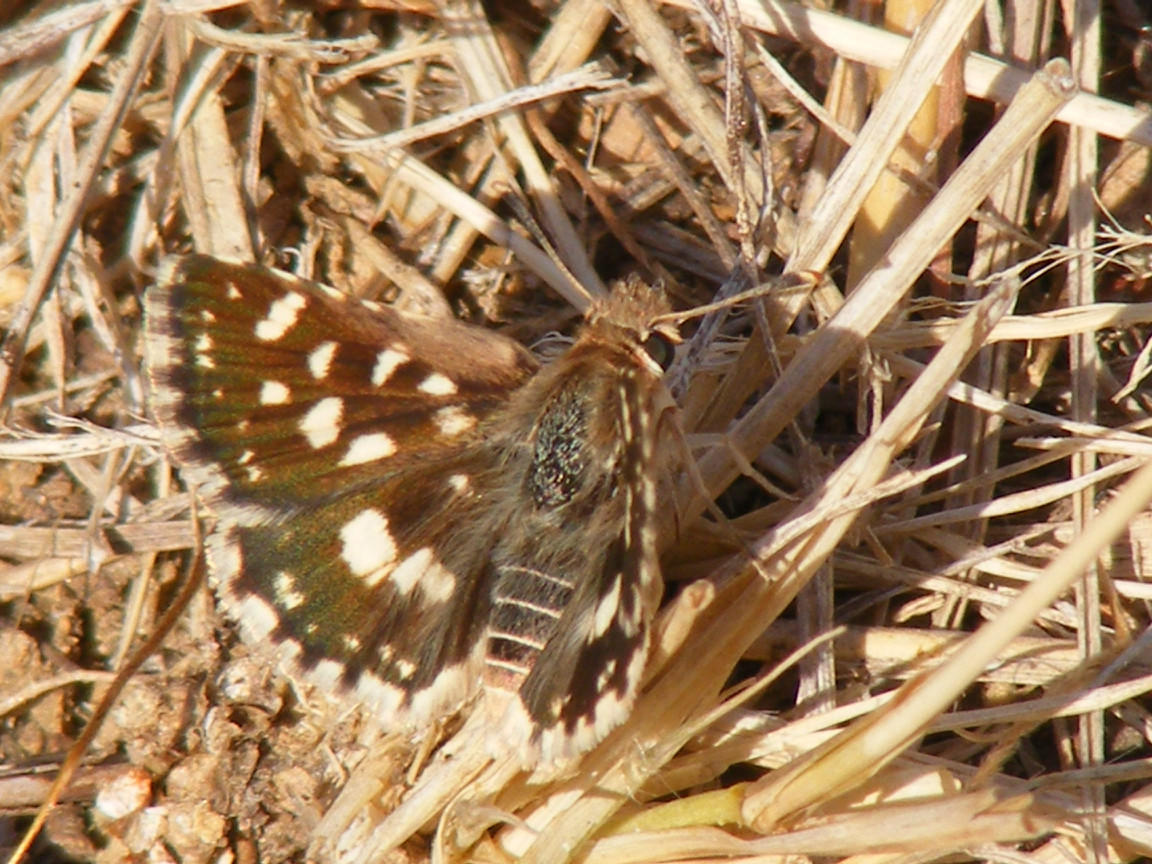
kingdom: Animalia
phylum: Arthropoda
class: Insecta
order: Lepidoptera
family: Hesperiidae
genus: Spialia
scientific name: Spialia mafa
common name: Mafa sandman
